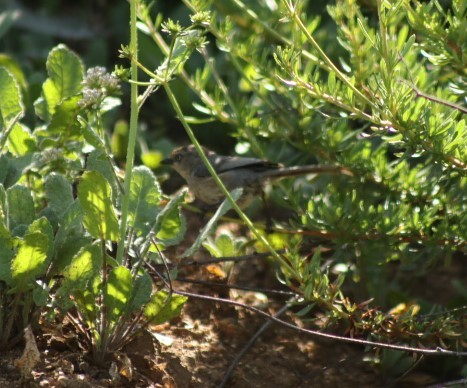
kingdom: Animalia
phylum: Chordata
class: Aves
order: Passeriformes
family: Aegithalidae
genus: Psaltriparus
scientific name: Psaltriparus minimus
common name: American bushtit
